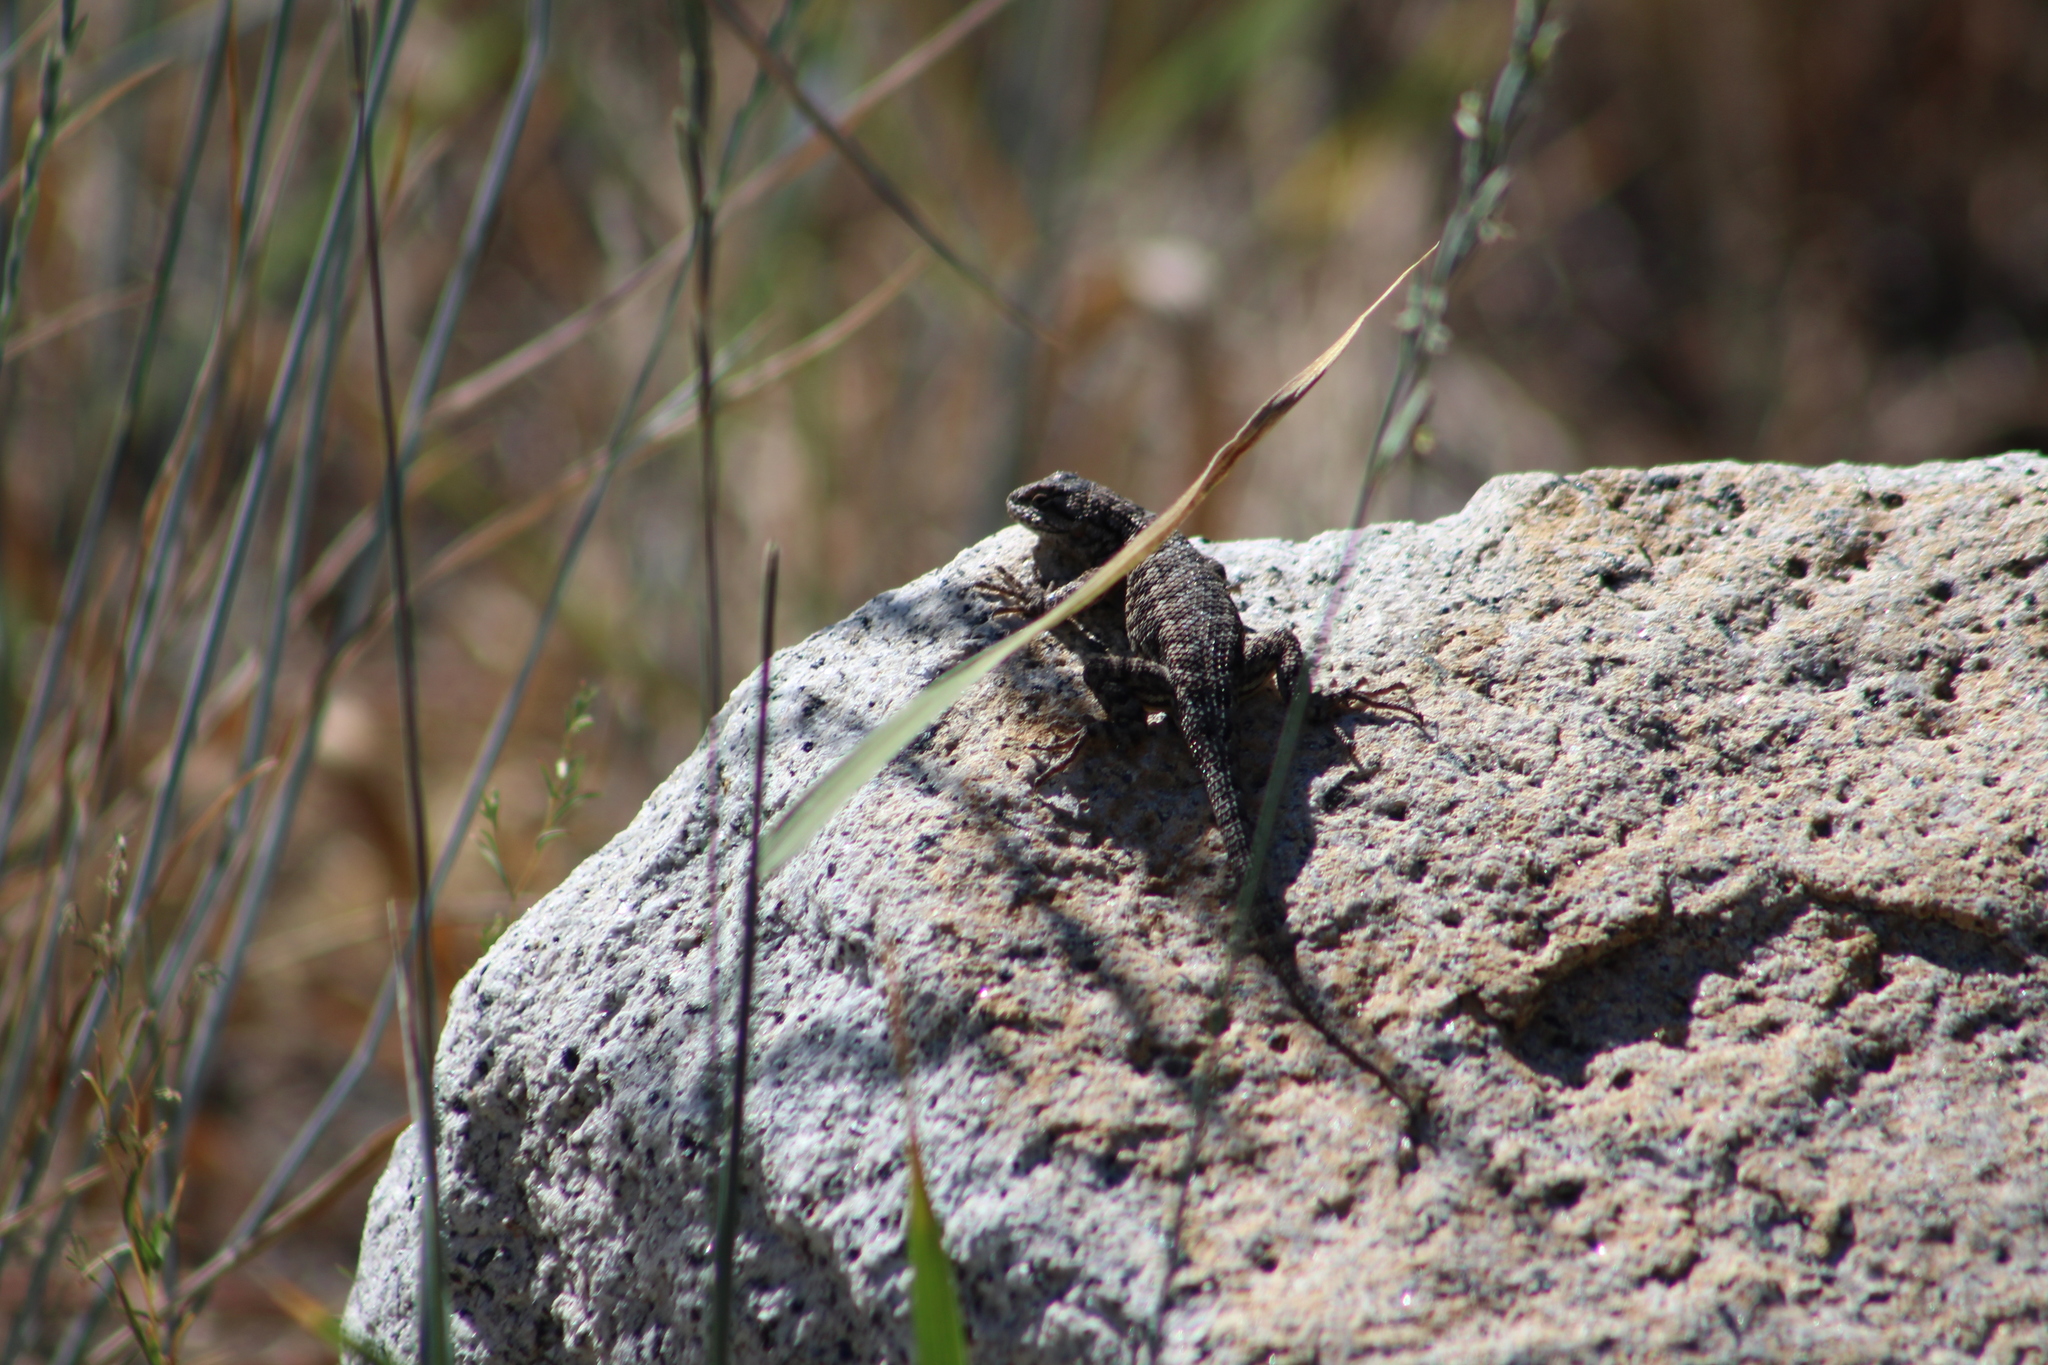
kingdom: Animalia
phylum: Chordata
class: Squamata
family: Phrynosomatidae
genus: Sceloporus
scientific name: Sceloporus occidentalis
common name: Western fence lizard
